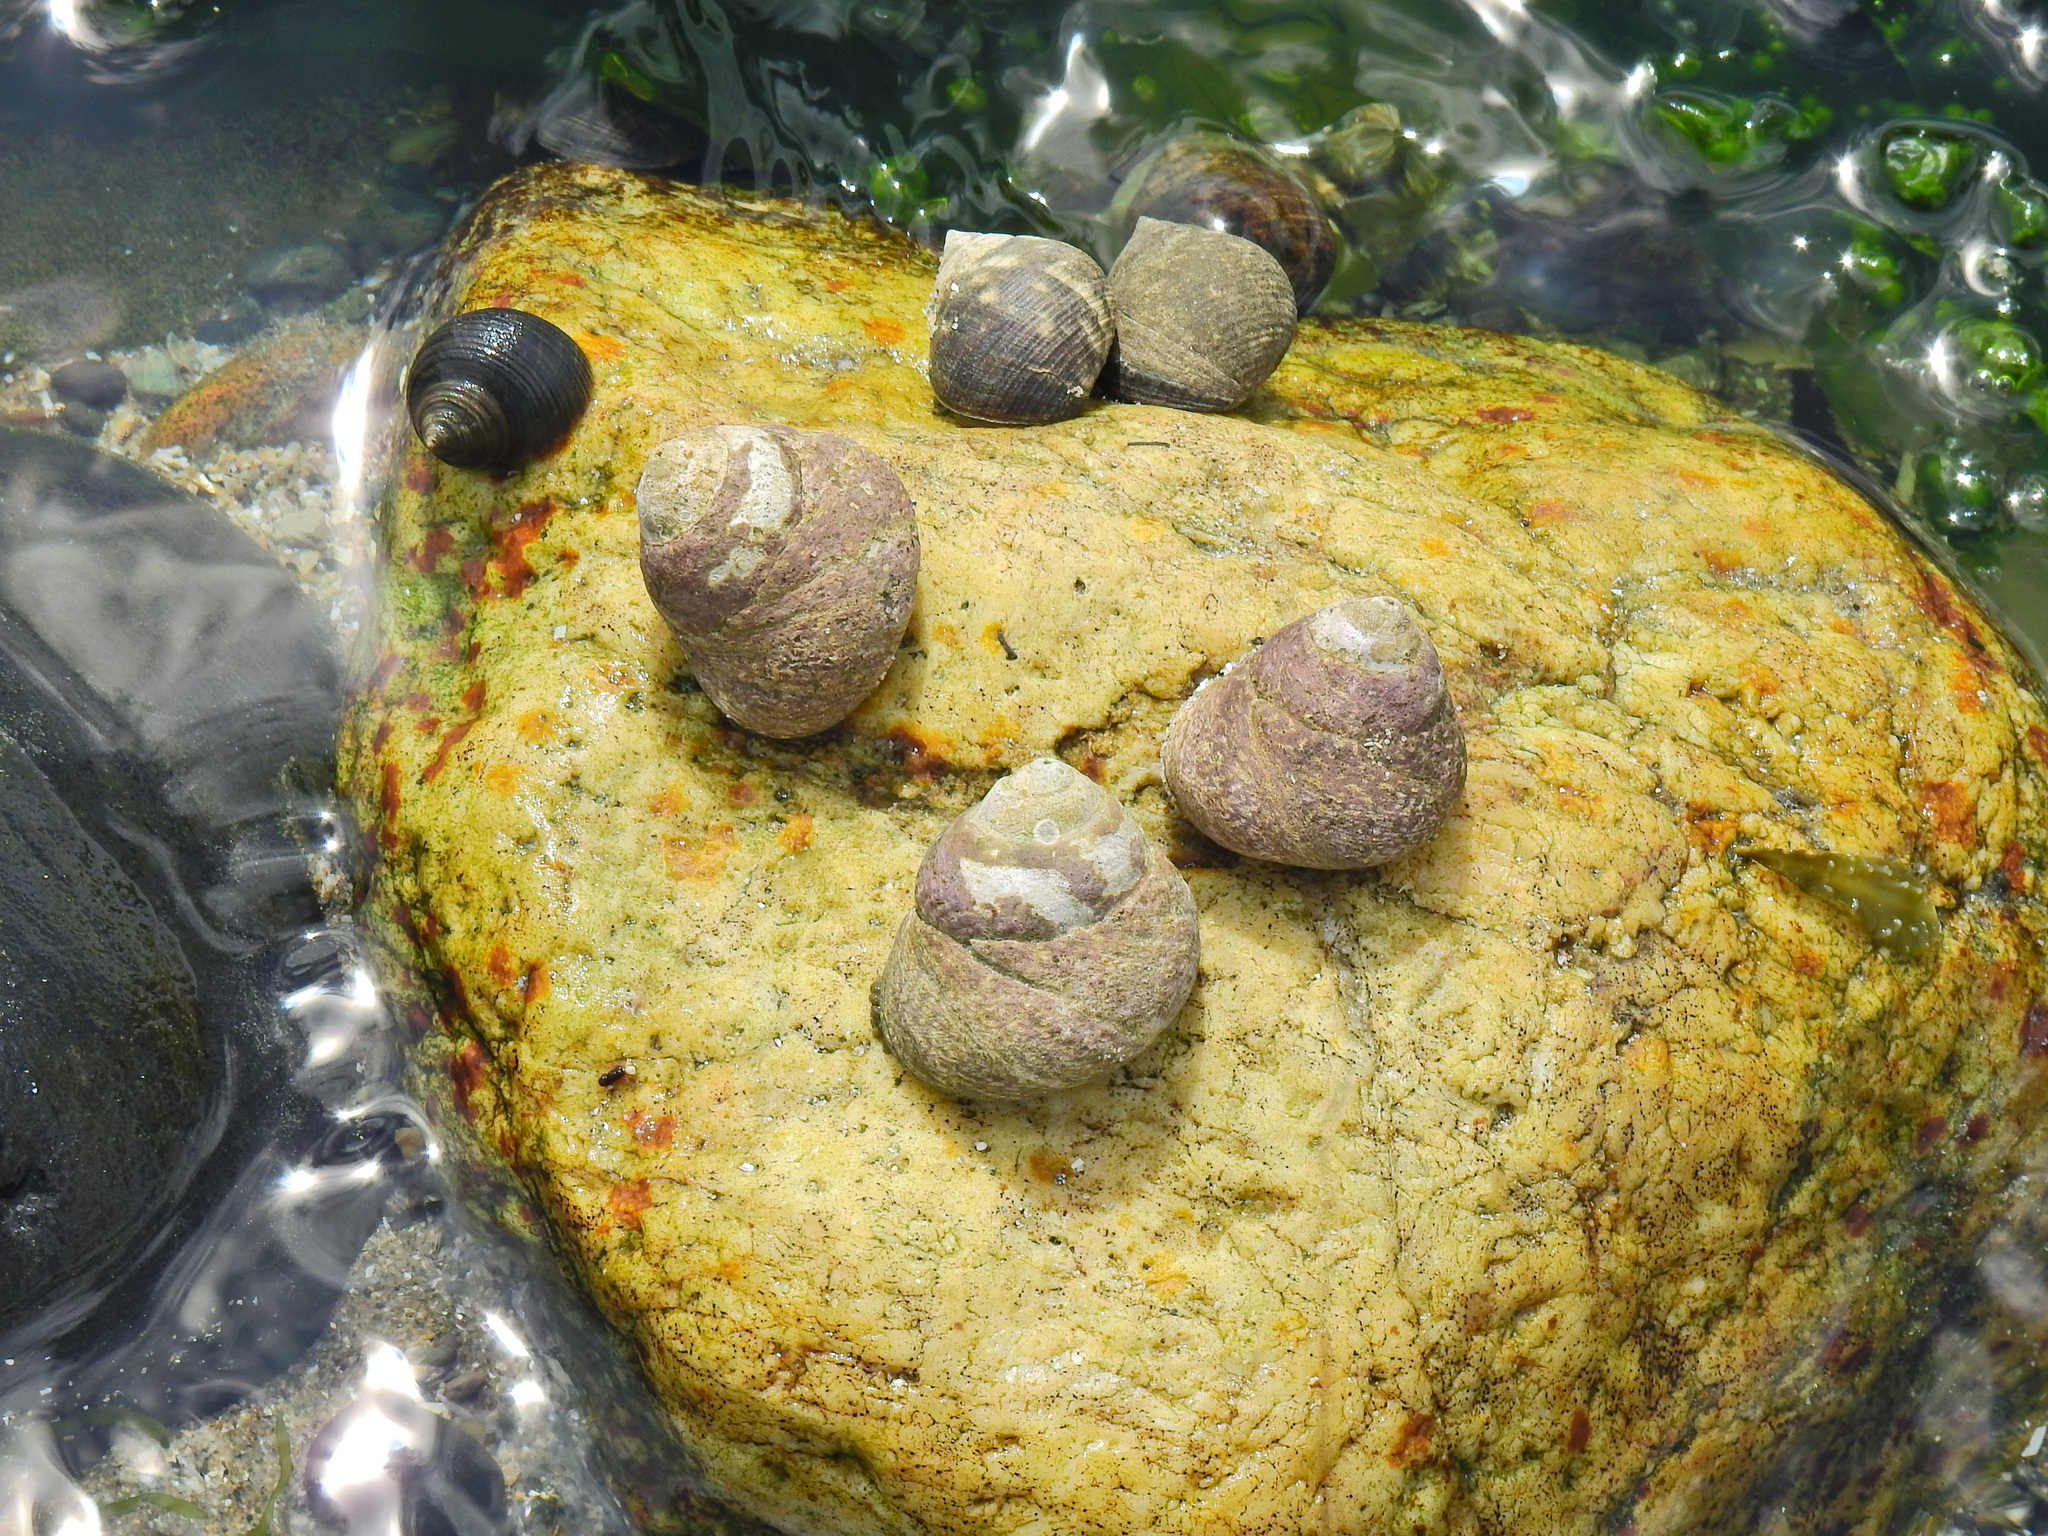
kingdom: Animalia
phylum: Mollusca
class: Gastropoda
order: Trochida
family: Trochidae
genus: Phorcus
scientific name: Phorcus lineatus
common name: Toothed top shell
